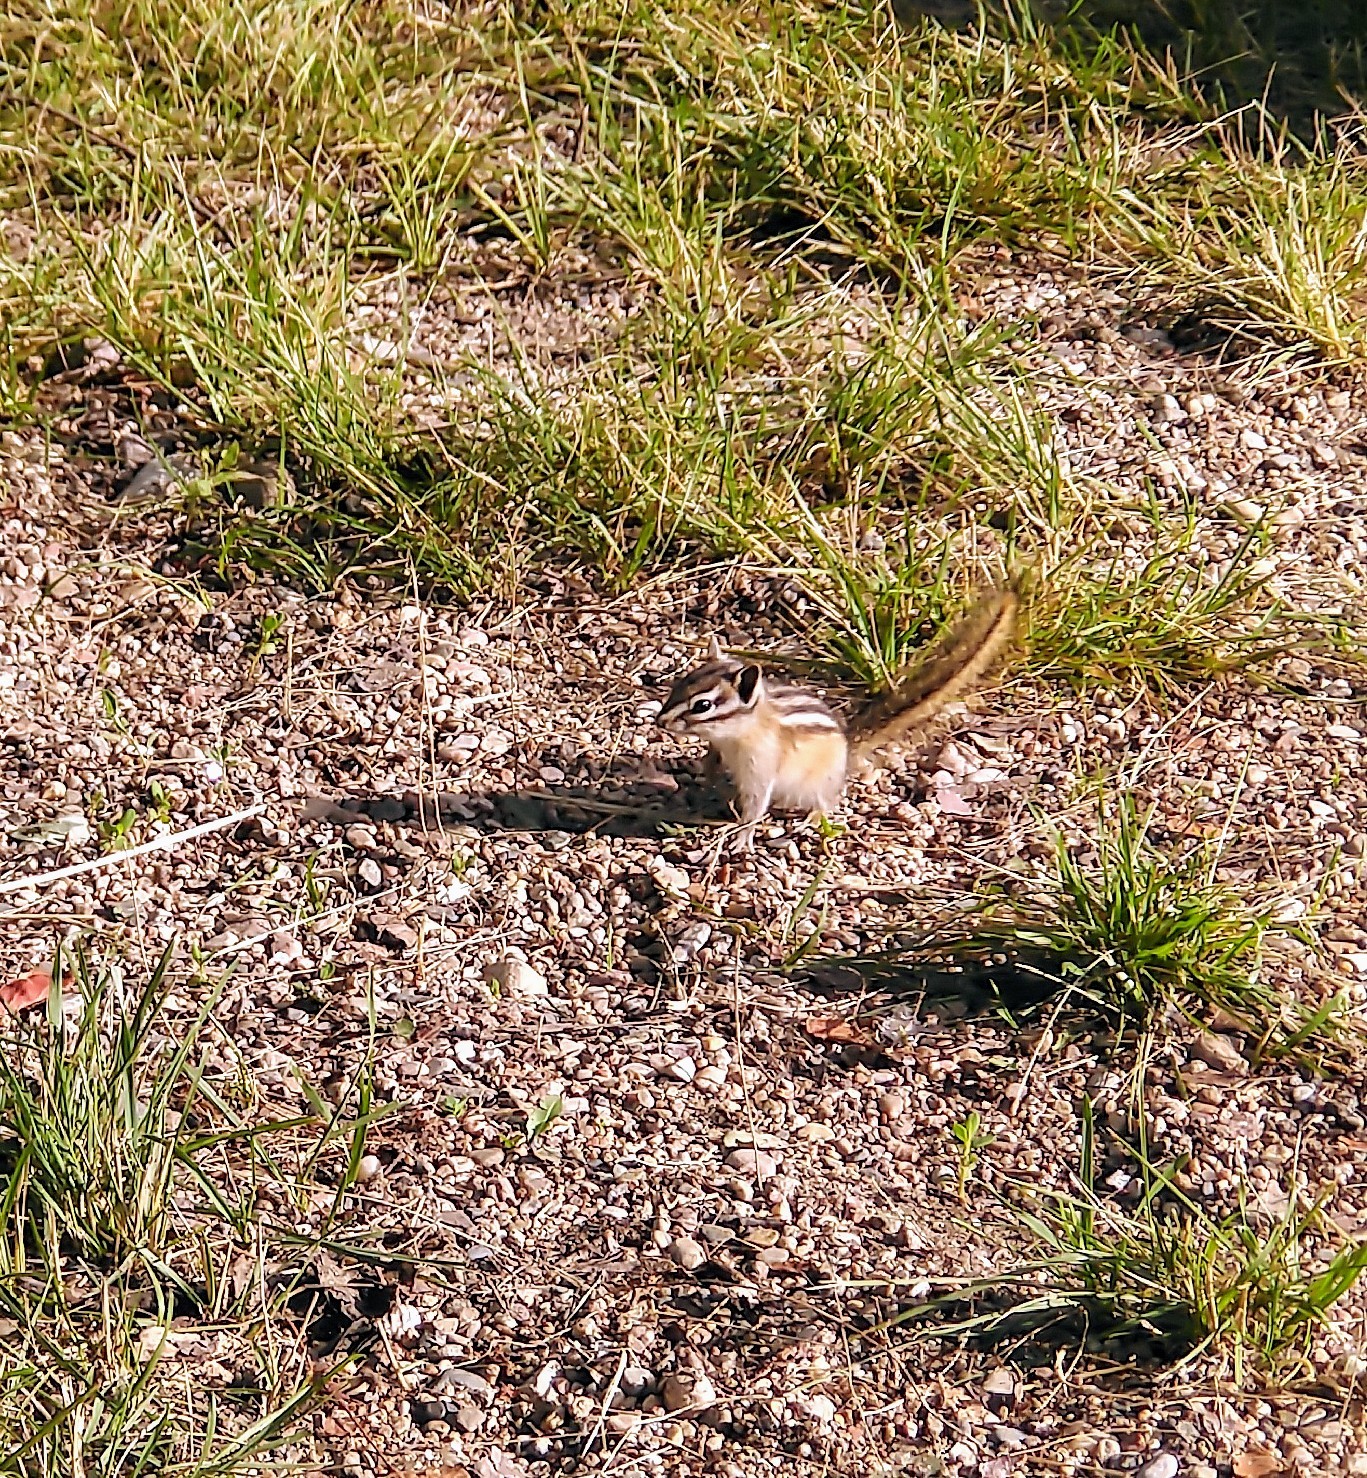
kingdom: Animalia
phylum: Chordata
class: Mammalia
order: Rodentia
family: Sciuridae
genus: Tamias
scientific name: Tamias minimus
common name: Least chipmunk
